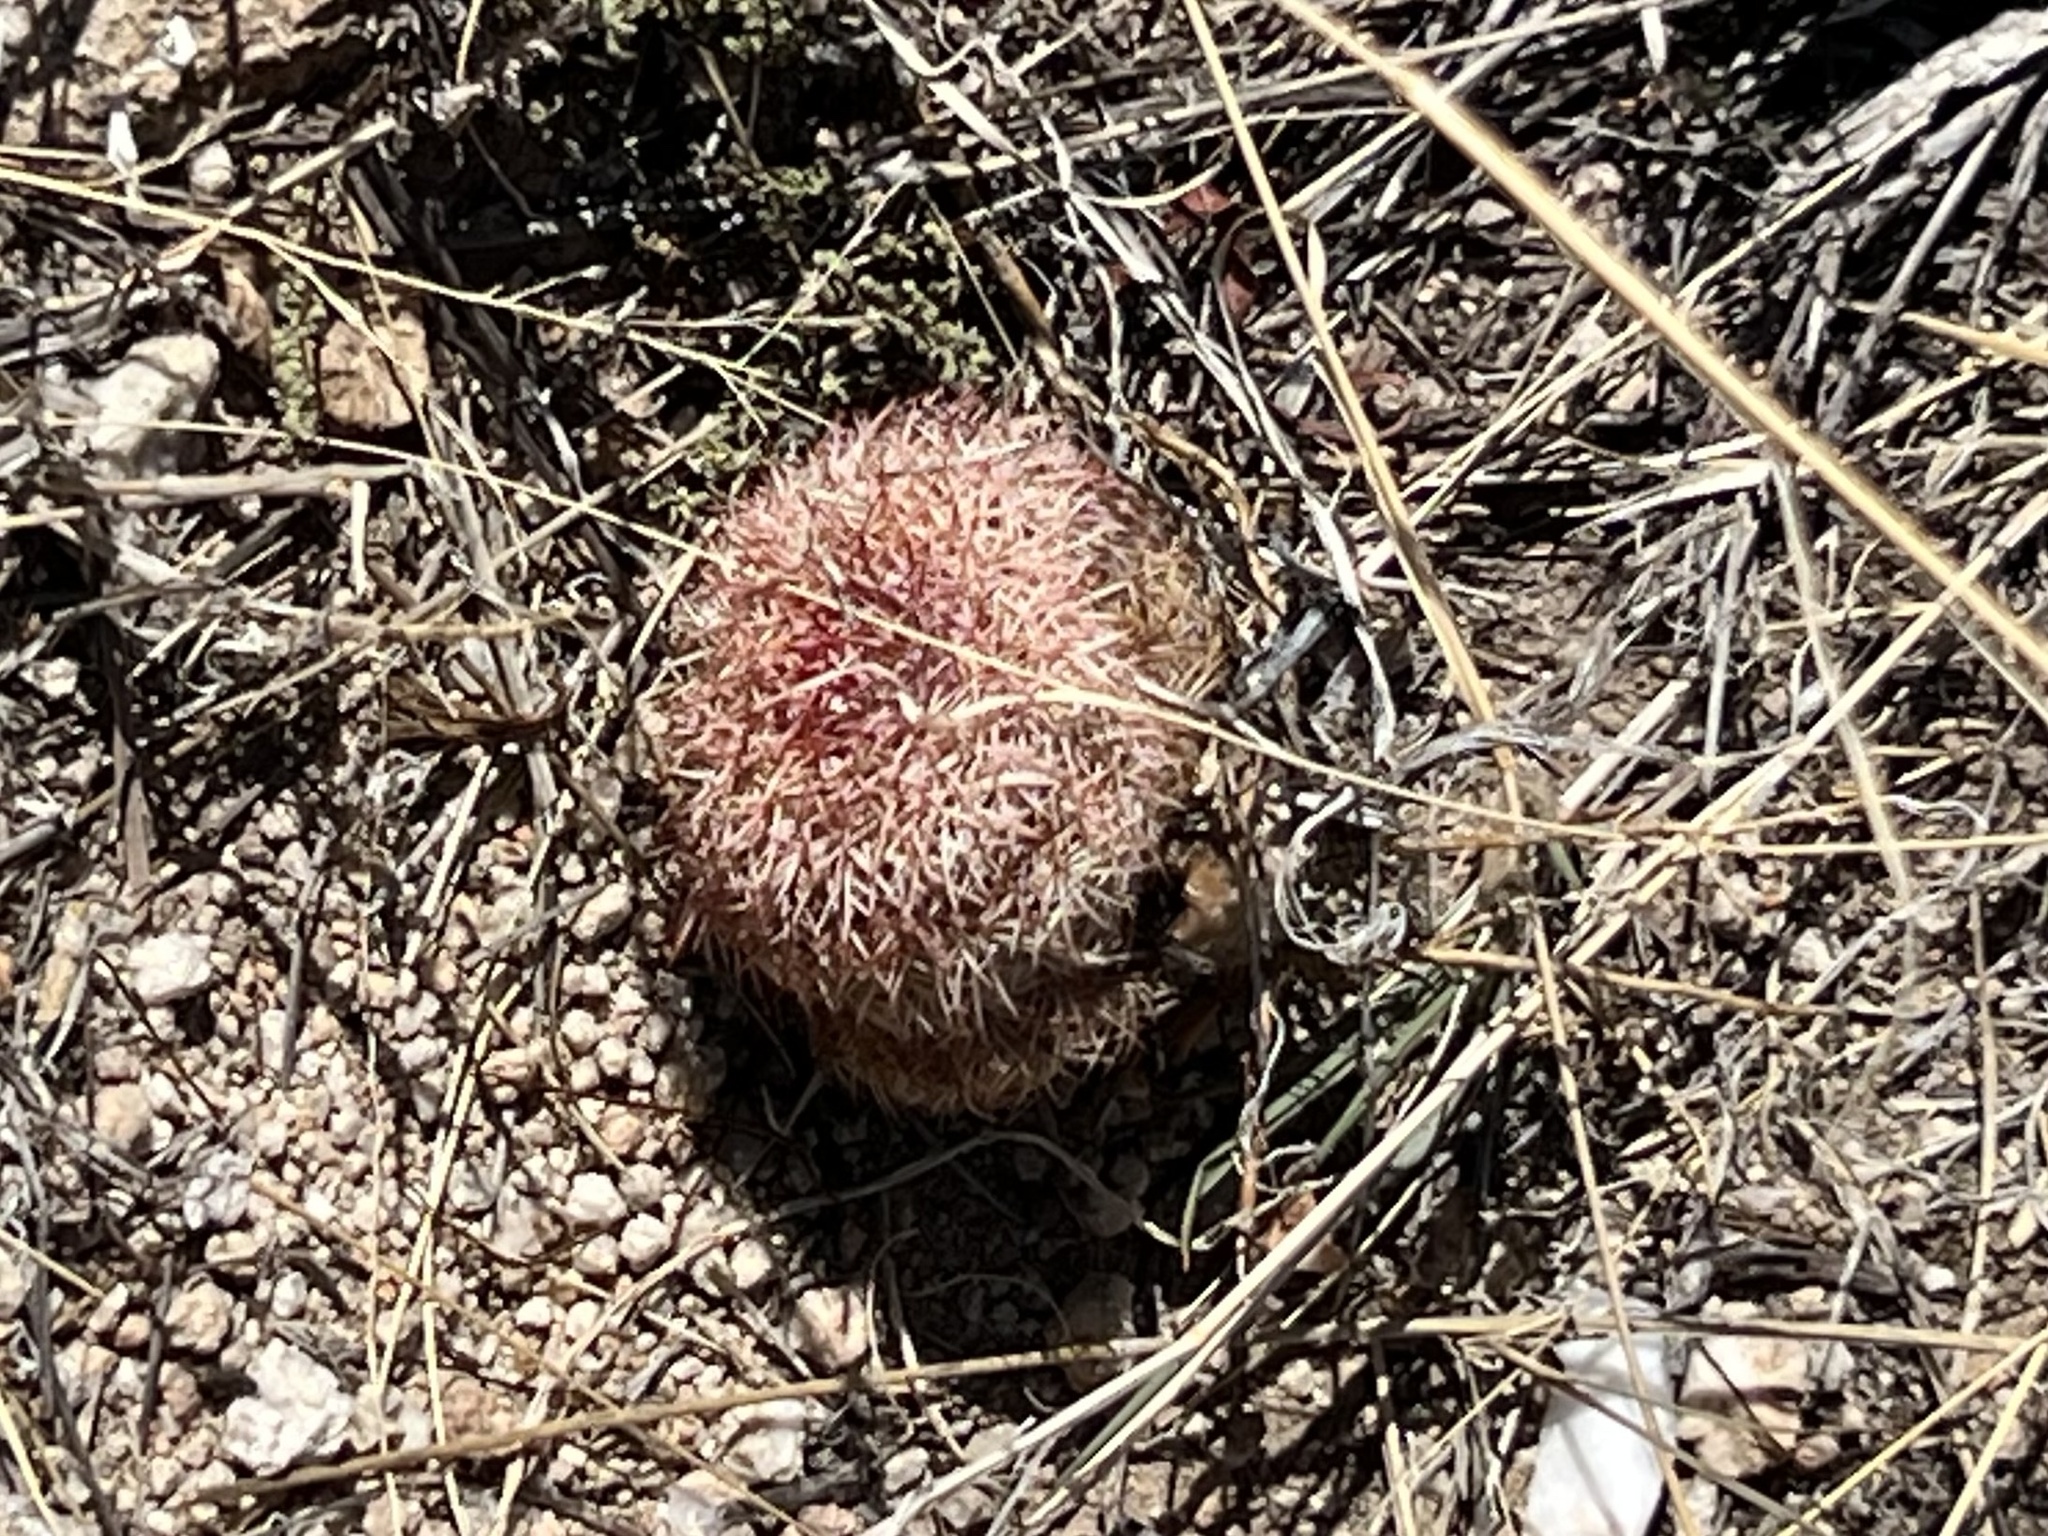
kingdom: Plantae
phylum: Tracheophyta
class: Magnoliopsida
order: Caryophyllales
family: Cactaceae
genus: Echinocereus
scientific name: Echinocereus rigidissimus
